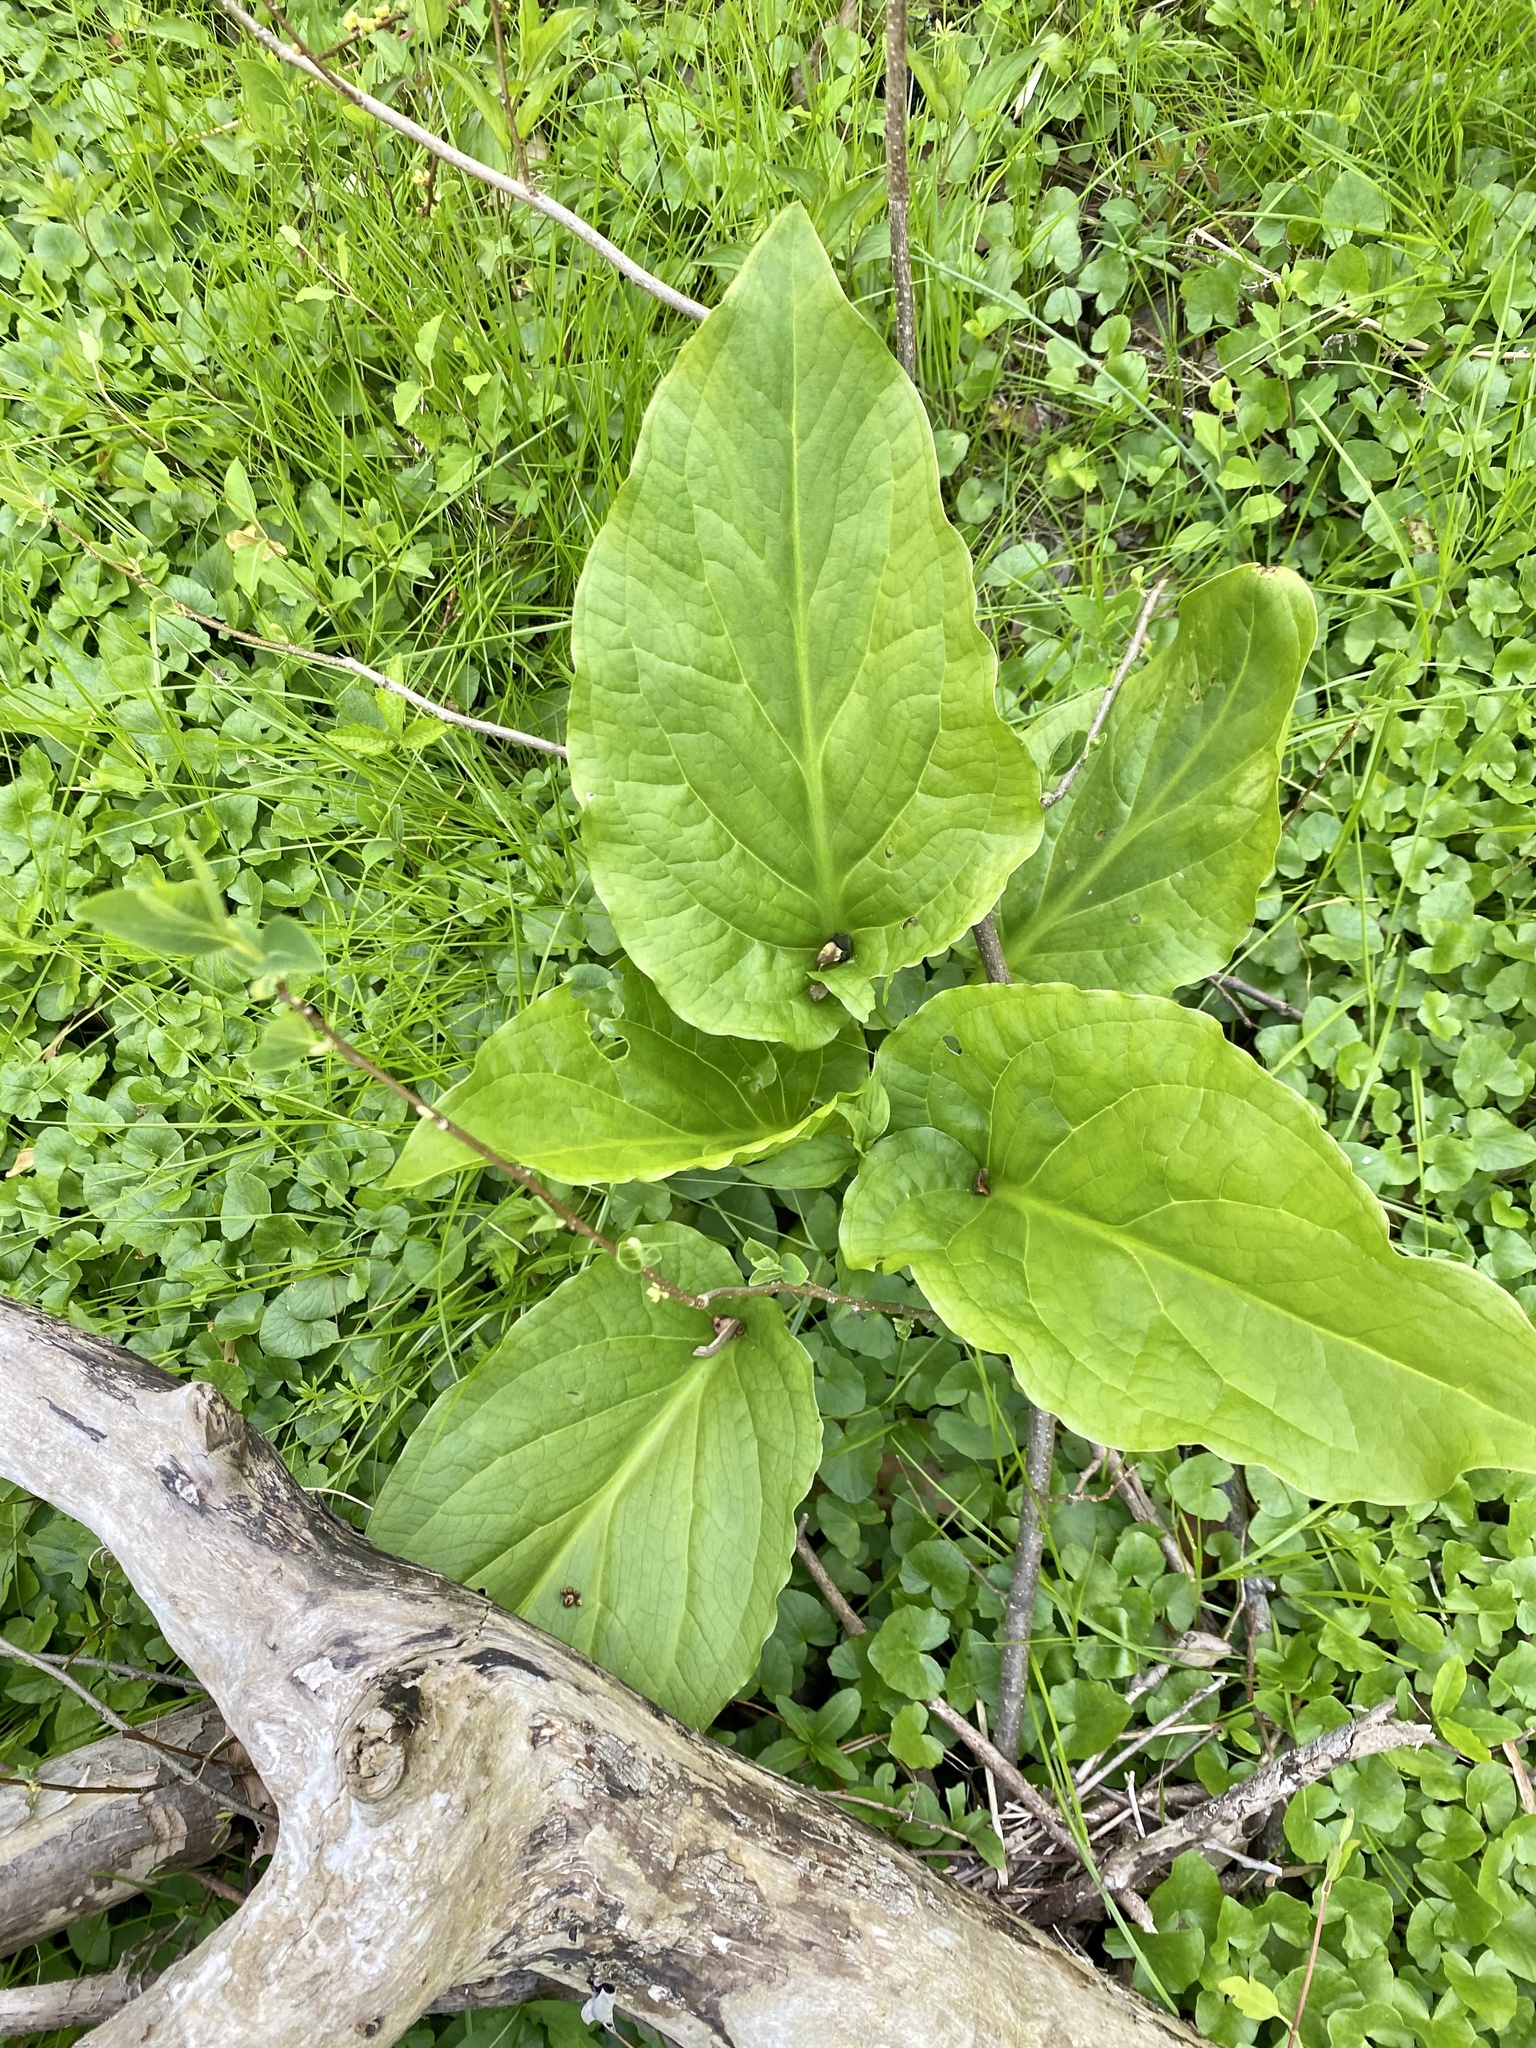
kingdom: Plantae
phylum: Tracheophyta
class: Liliopsida
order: Alismatales
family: Araceae
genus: Symplocarpus
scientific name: Symplocarpus foetidus
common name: Eastern skunk cabbage
